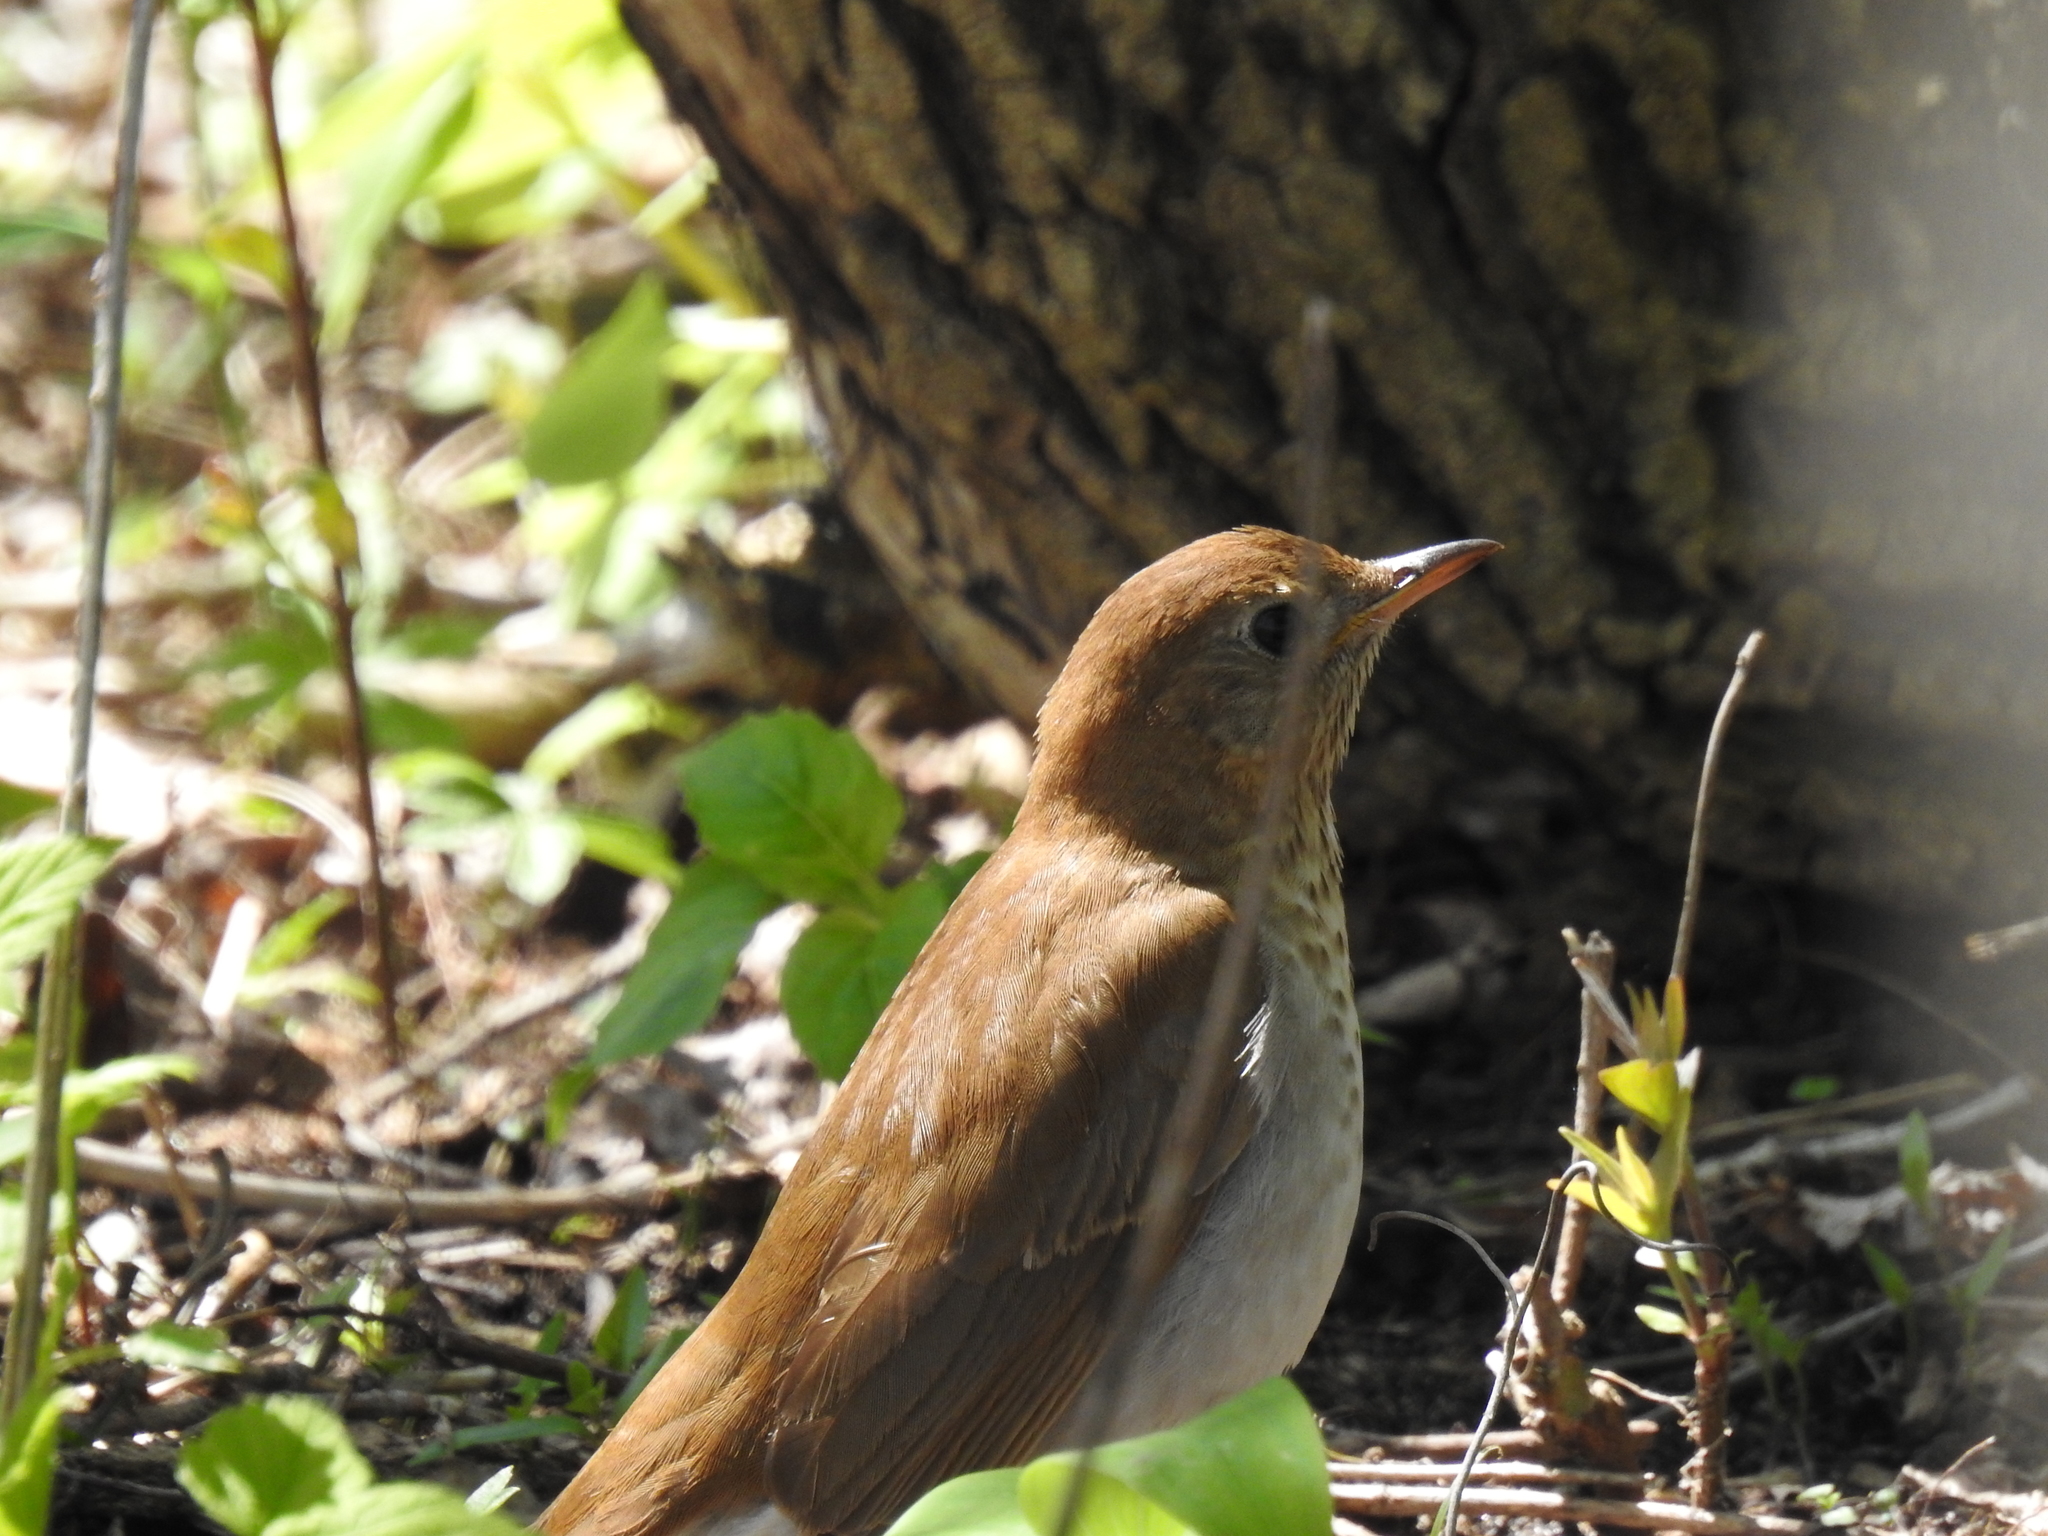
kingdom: Animalia
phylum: Chordata
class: Aves
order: Passeriformes
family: Turdidae
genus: Catharus
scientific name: Catharus fuscescens
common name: Veery
